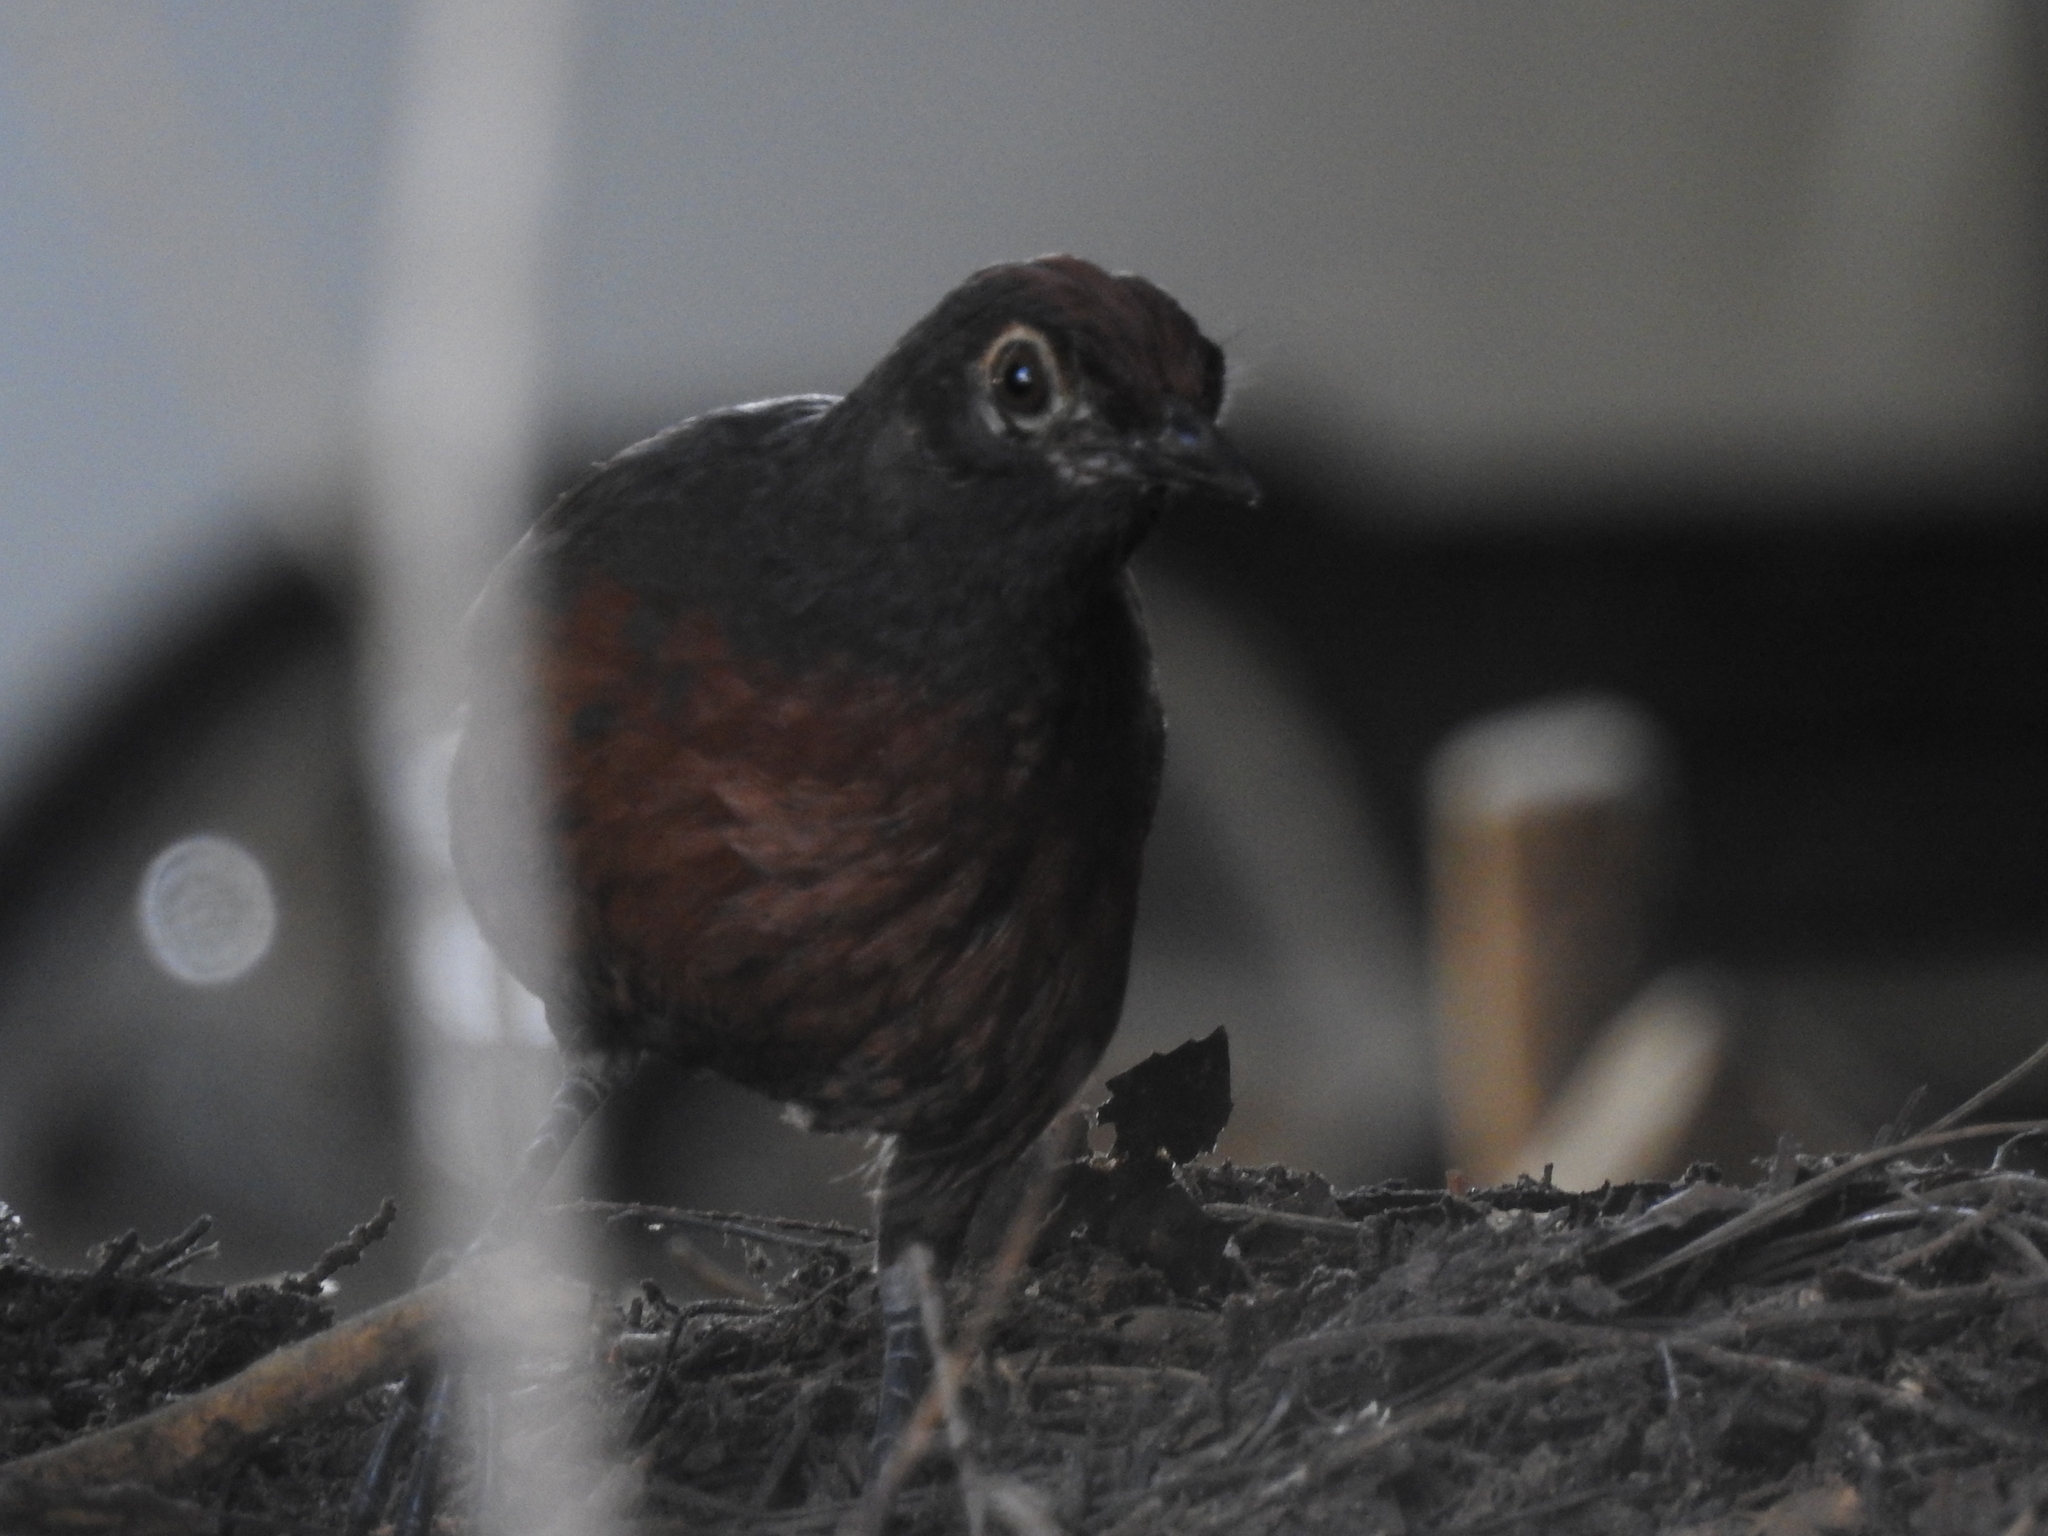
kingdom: Animalia
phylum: Chordata
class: Aves
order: Passeriformes
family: Rhinocryptidae
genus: Pteroptochos
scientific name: Pteroptochos tarnii
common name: Black-throated huet-huet
